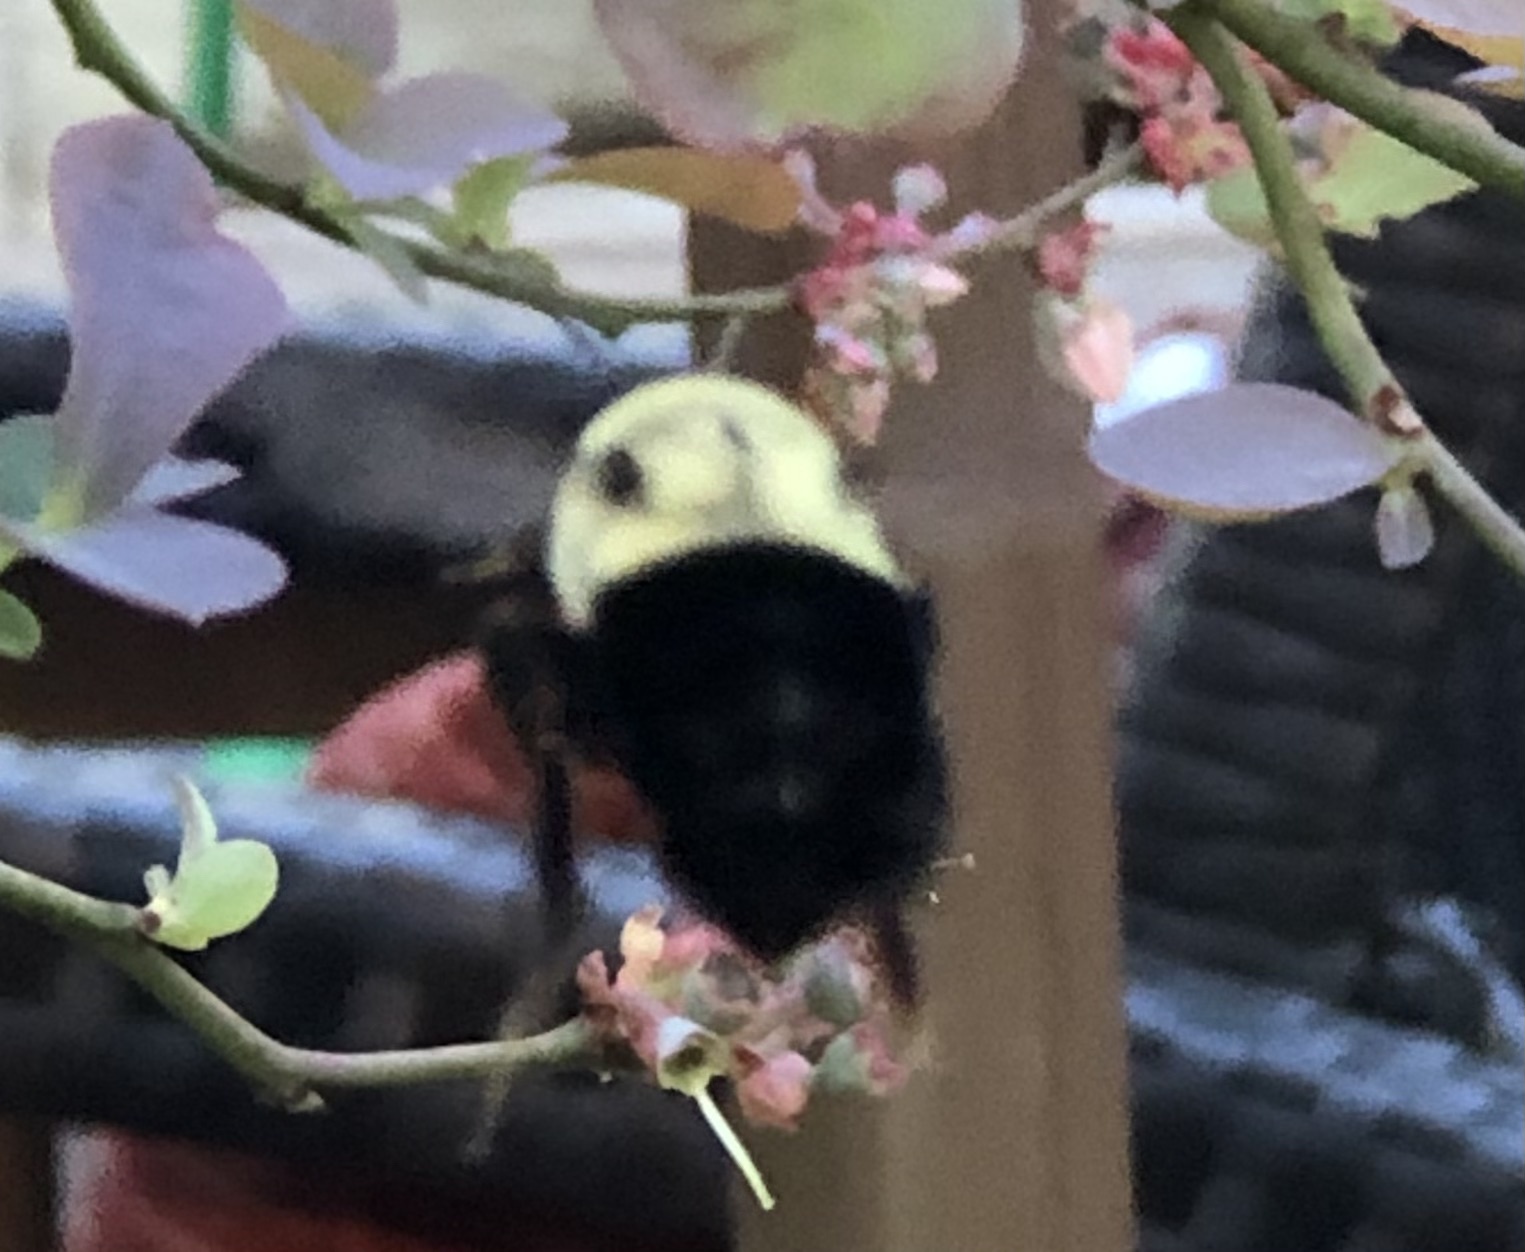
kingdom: Animalia
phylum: Arthropoda
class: Insecta
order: Hymenoptera
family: Apidae
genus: Bombus
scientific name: Bombus impatiens
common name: Common eastern bumble bee
